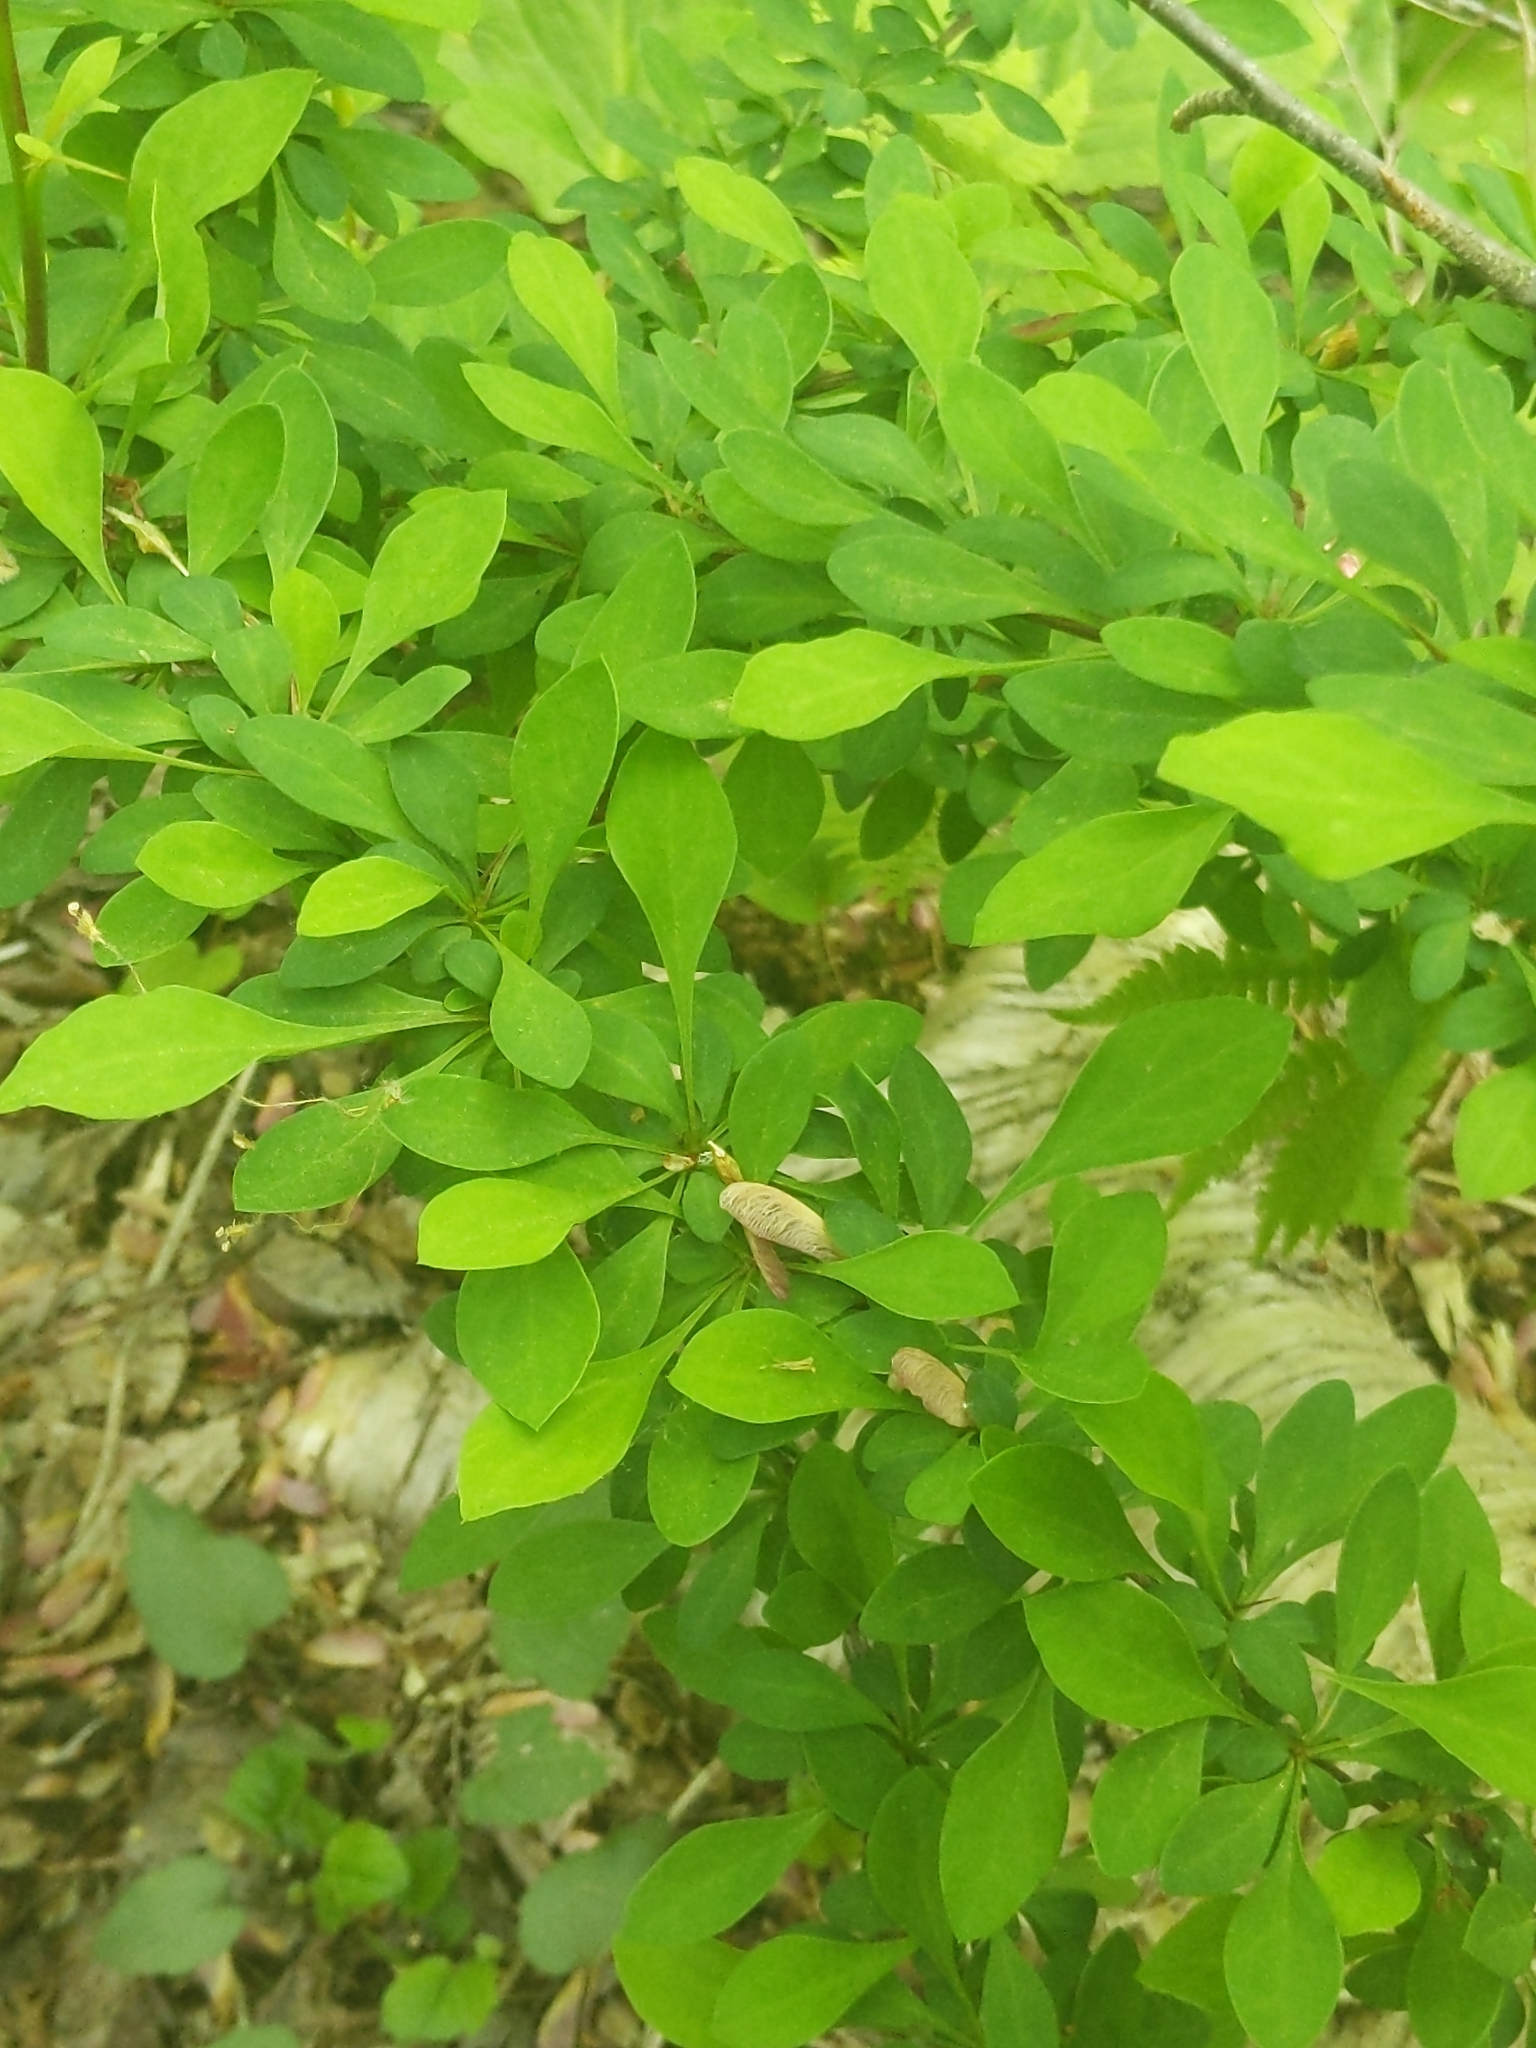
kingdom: Plantae
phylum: Tracheophyta
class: Magnoliopsida
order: Ranunculales
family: Berberidaceae
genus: Berberis
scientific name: Berberis thunbergii
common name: Japanese barberry
